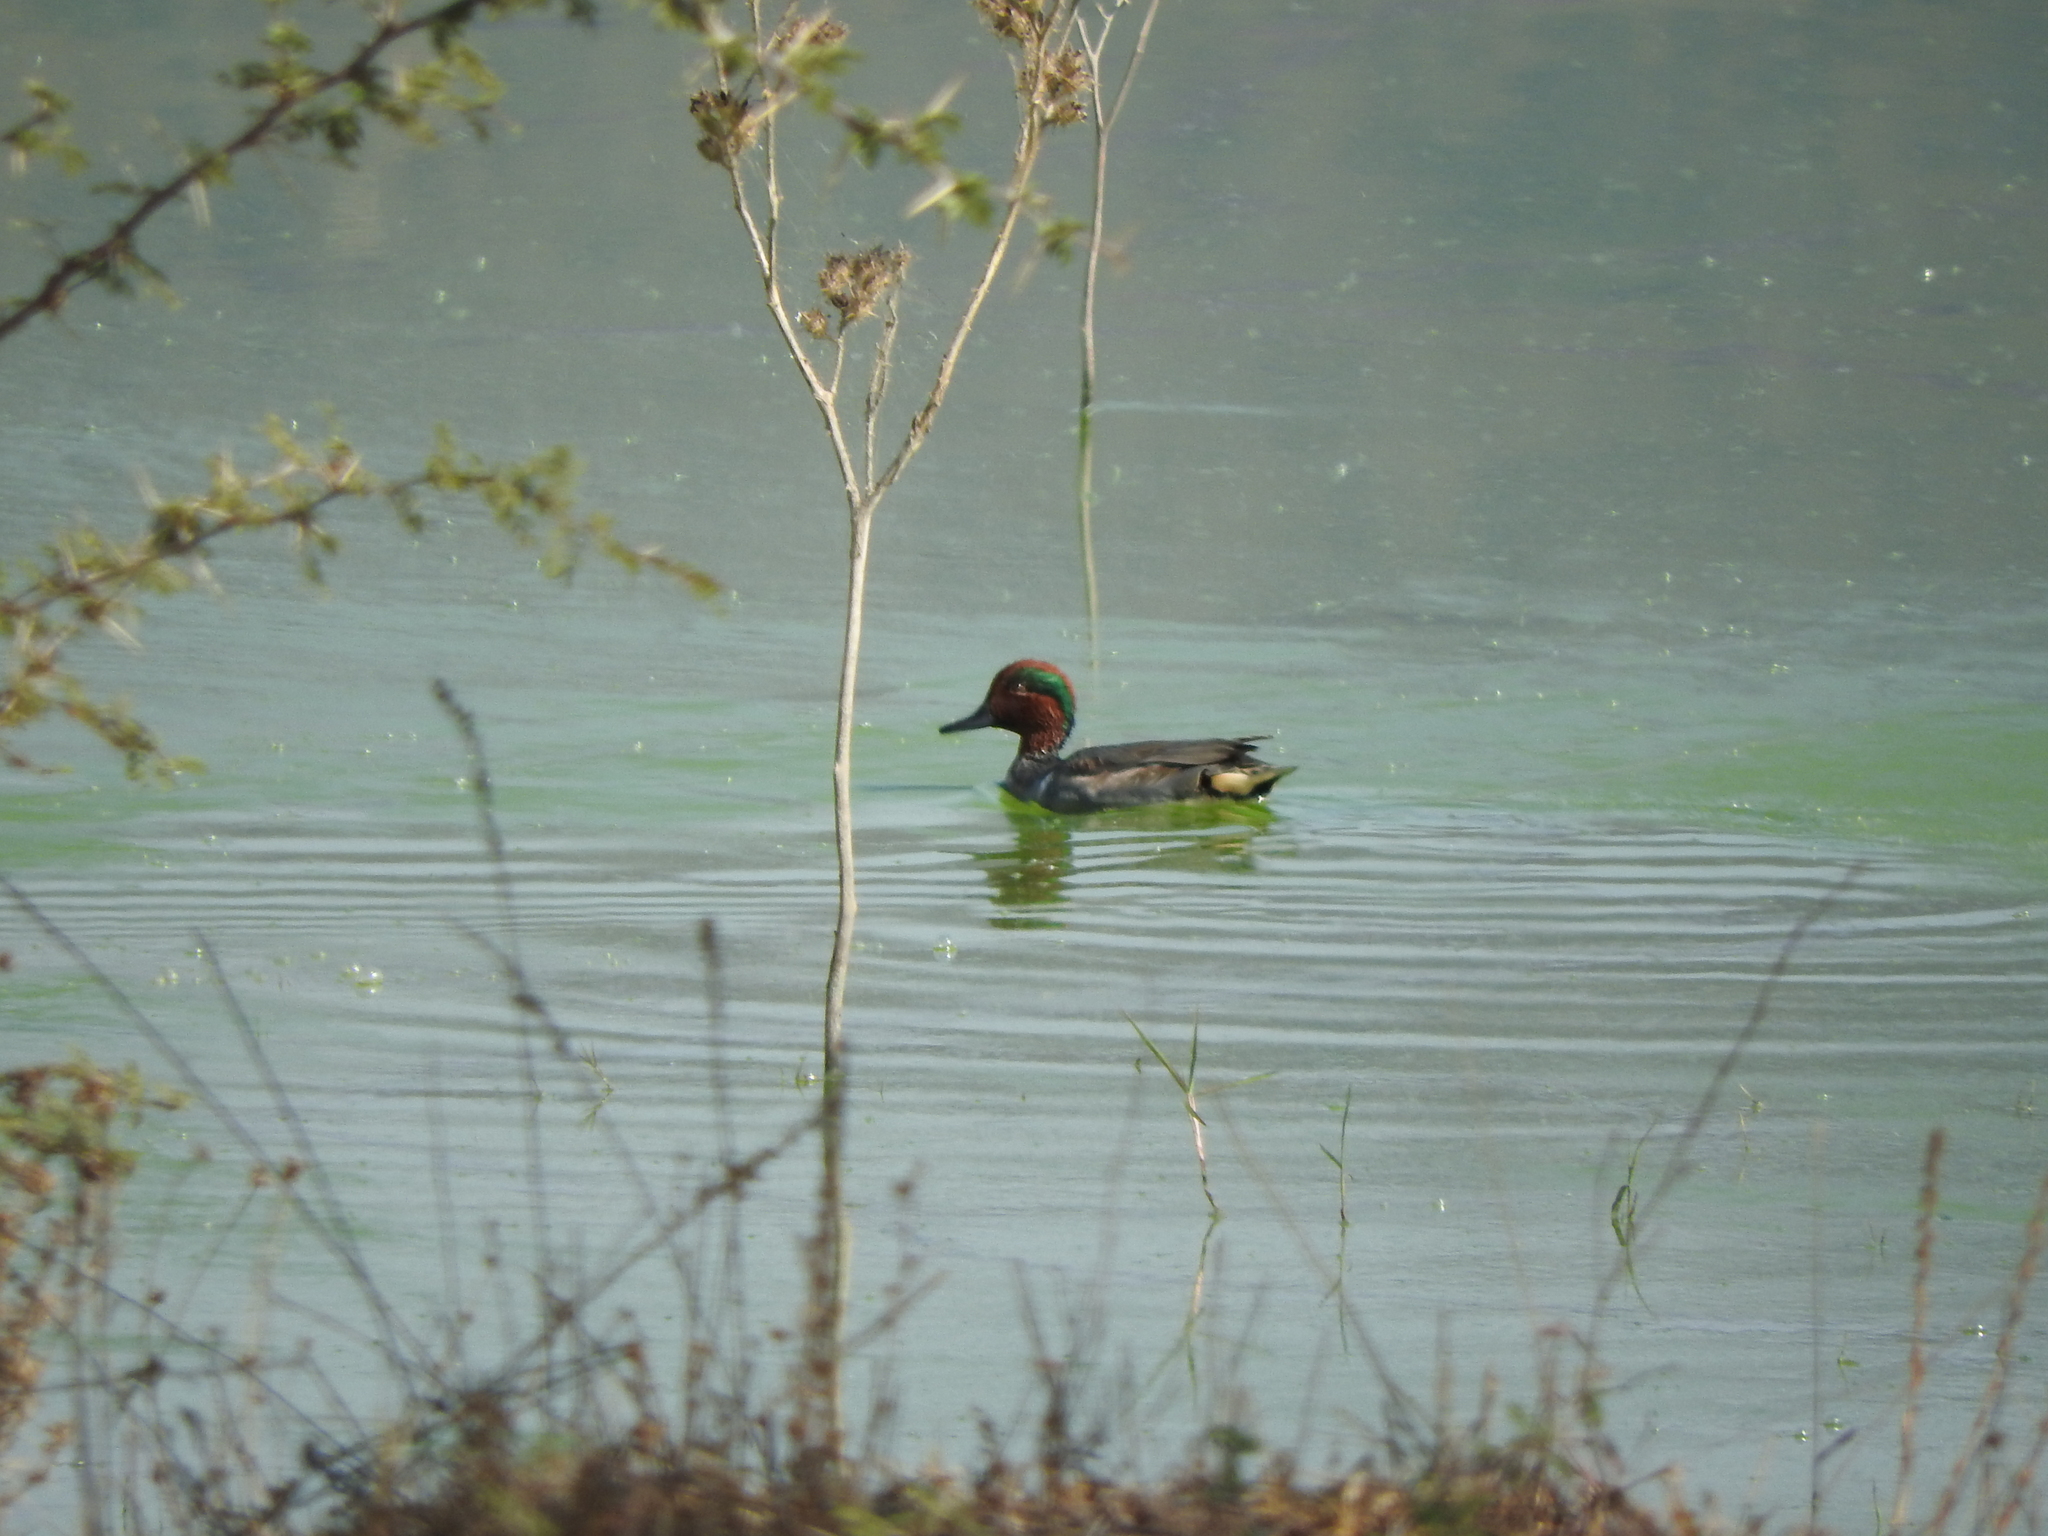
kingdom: Animalia
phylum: Chordata
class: Aves
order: Anseriformes
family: Anatidae
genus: Anas
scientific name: Anas crecca
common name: Eurasian teal
